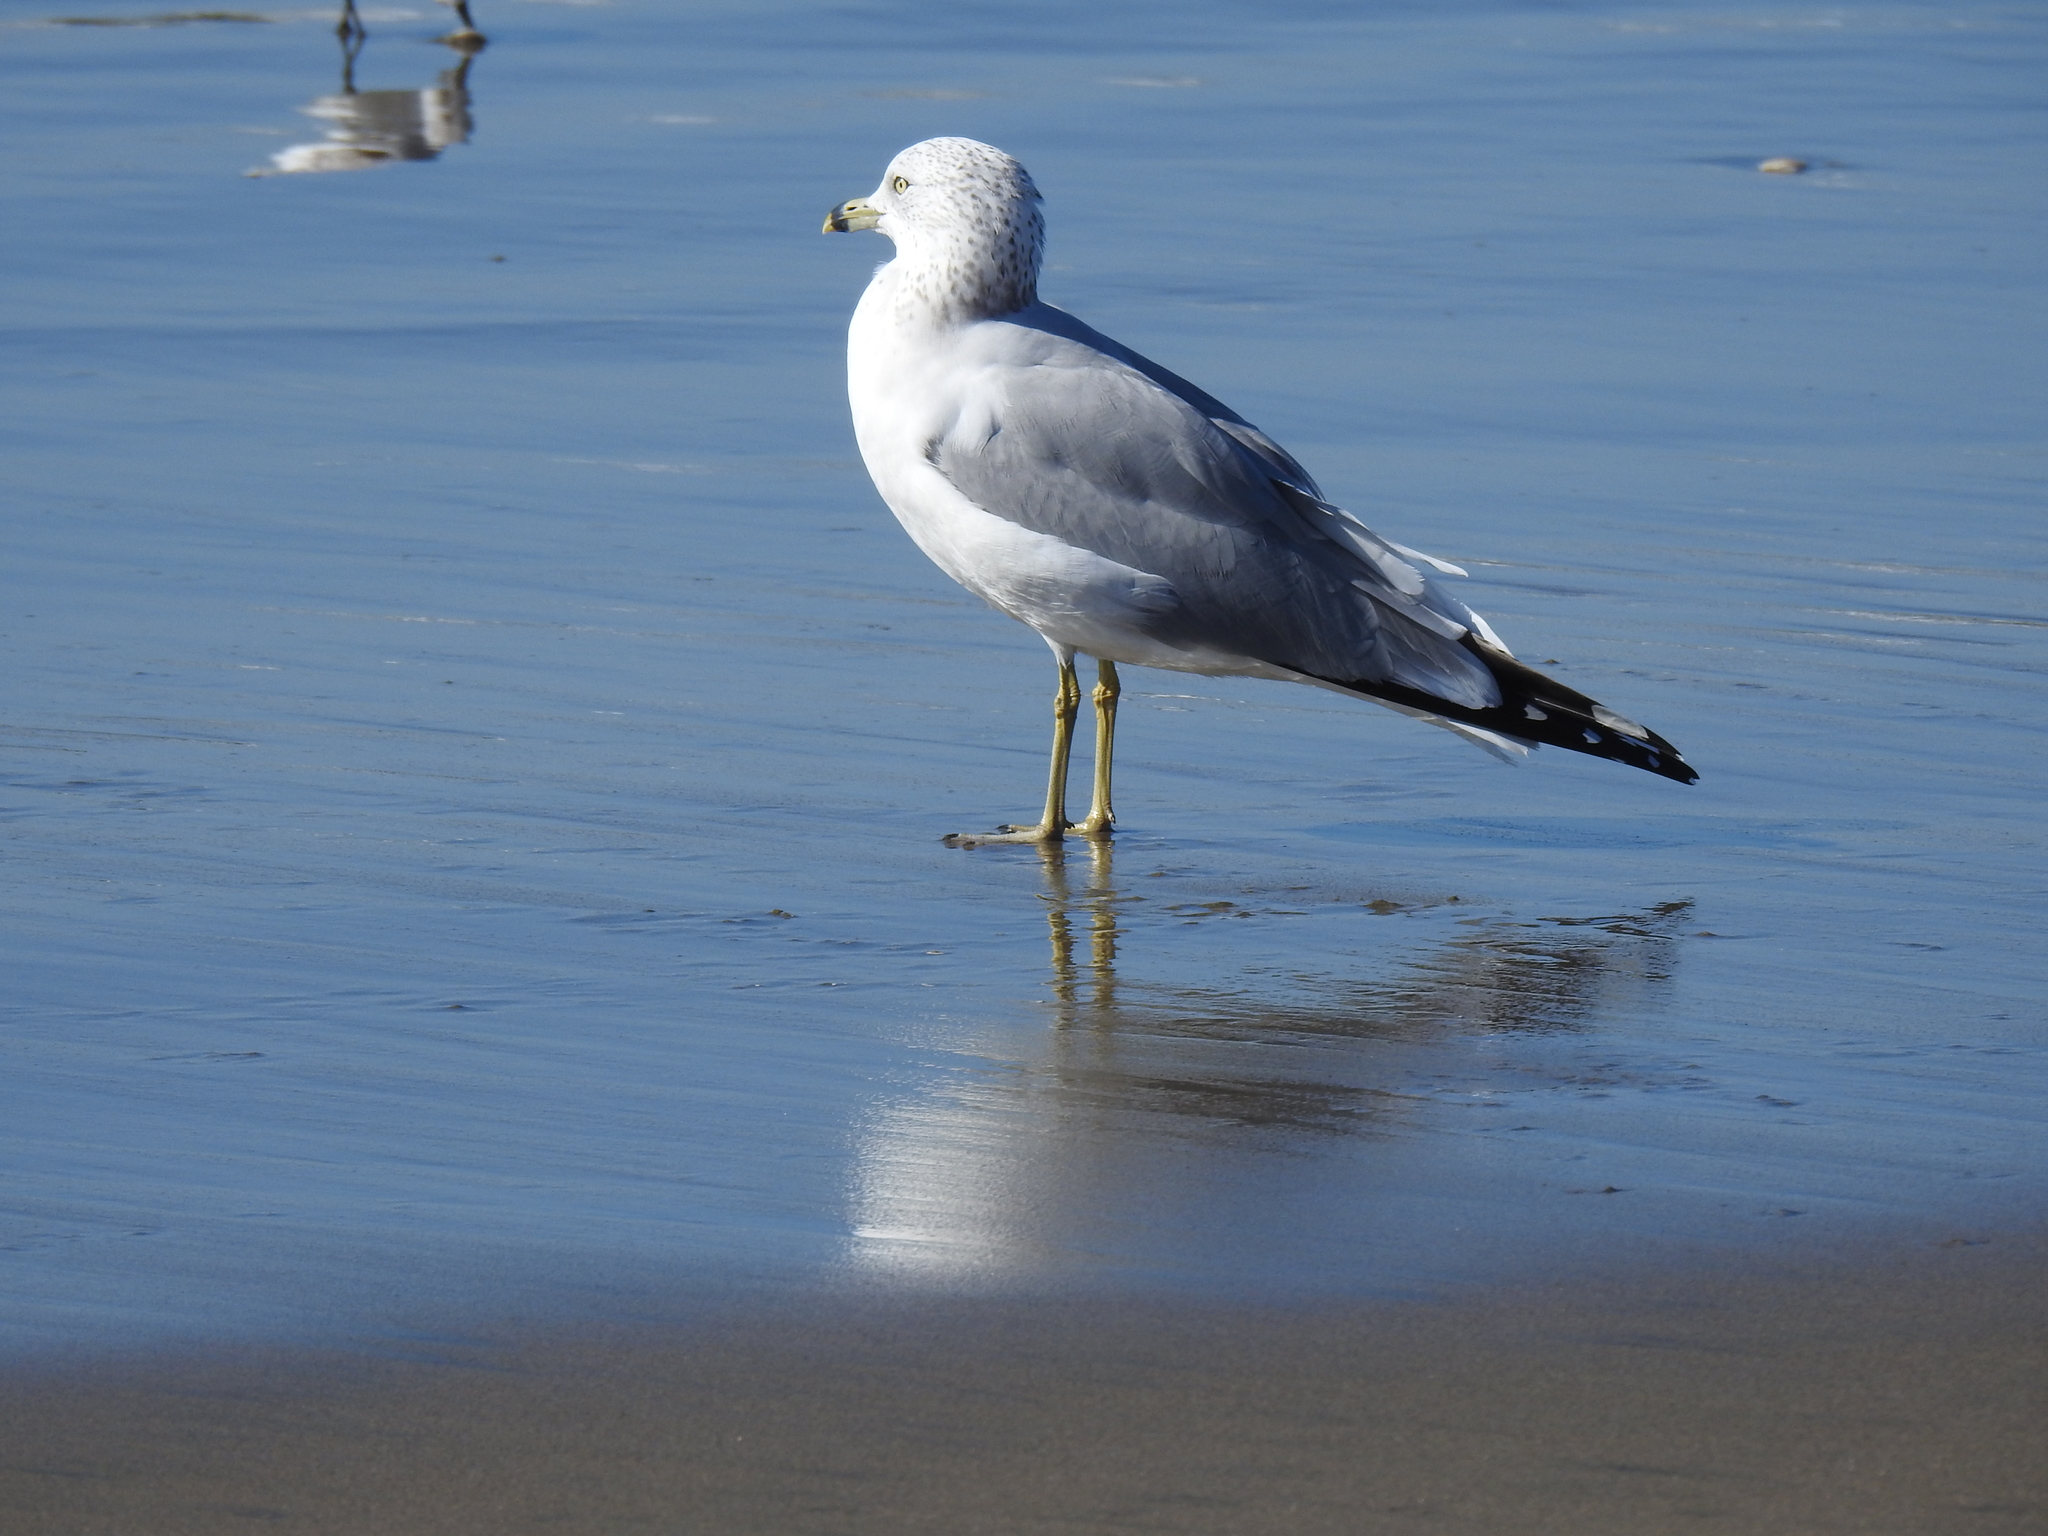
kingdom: Animalia
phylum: Chordata
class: Aves
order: Charadriiformes
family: Laridae
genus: Larus
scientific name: Larus delawarensis
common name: Ring-billed gull
